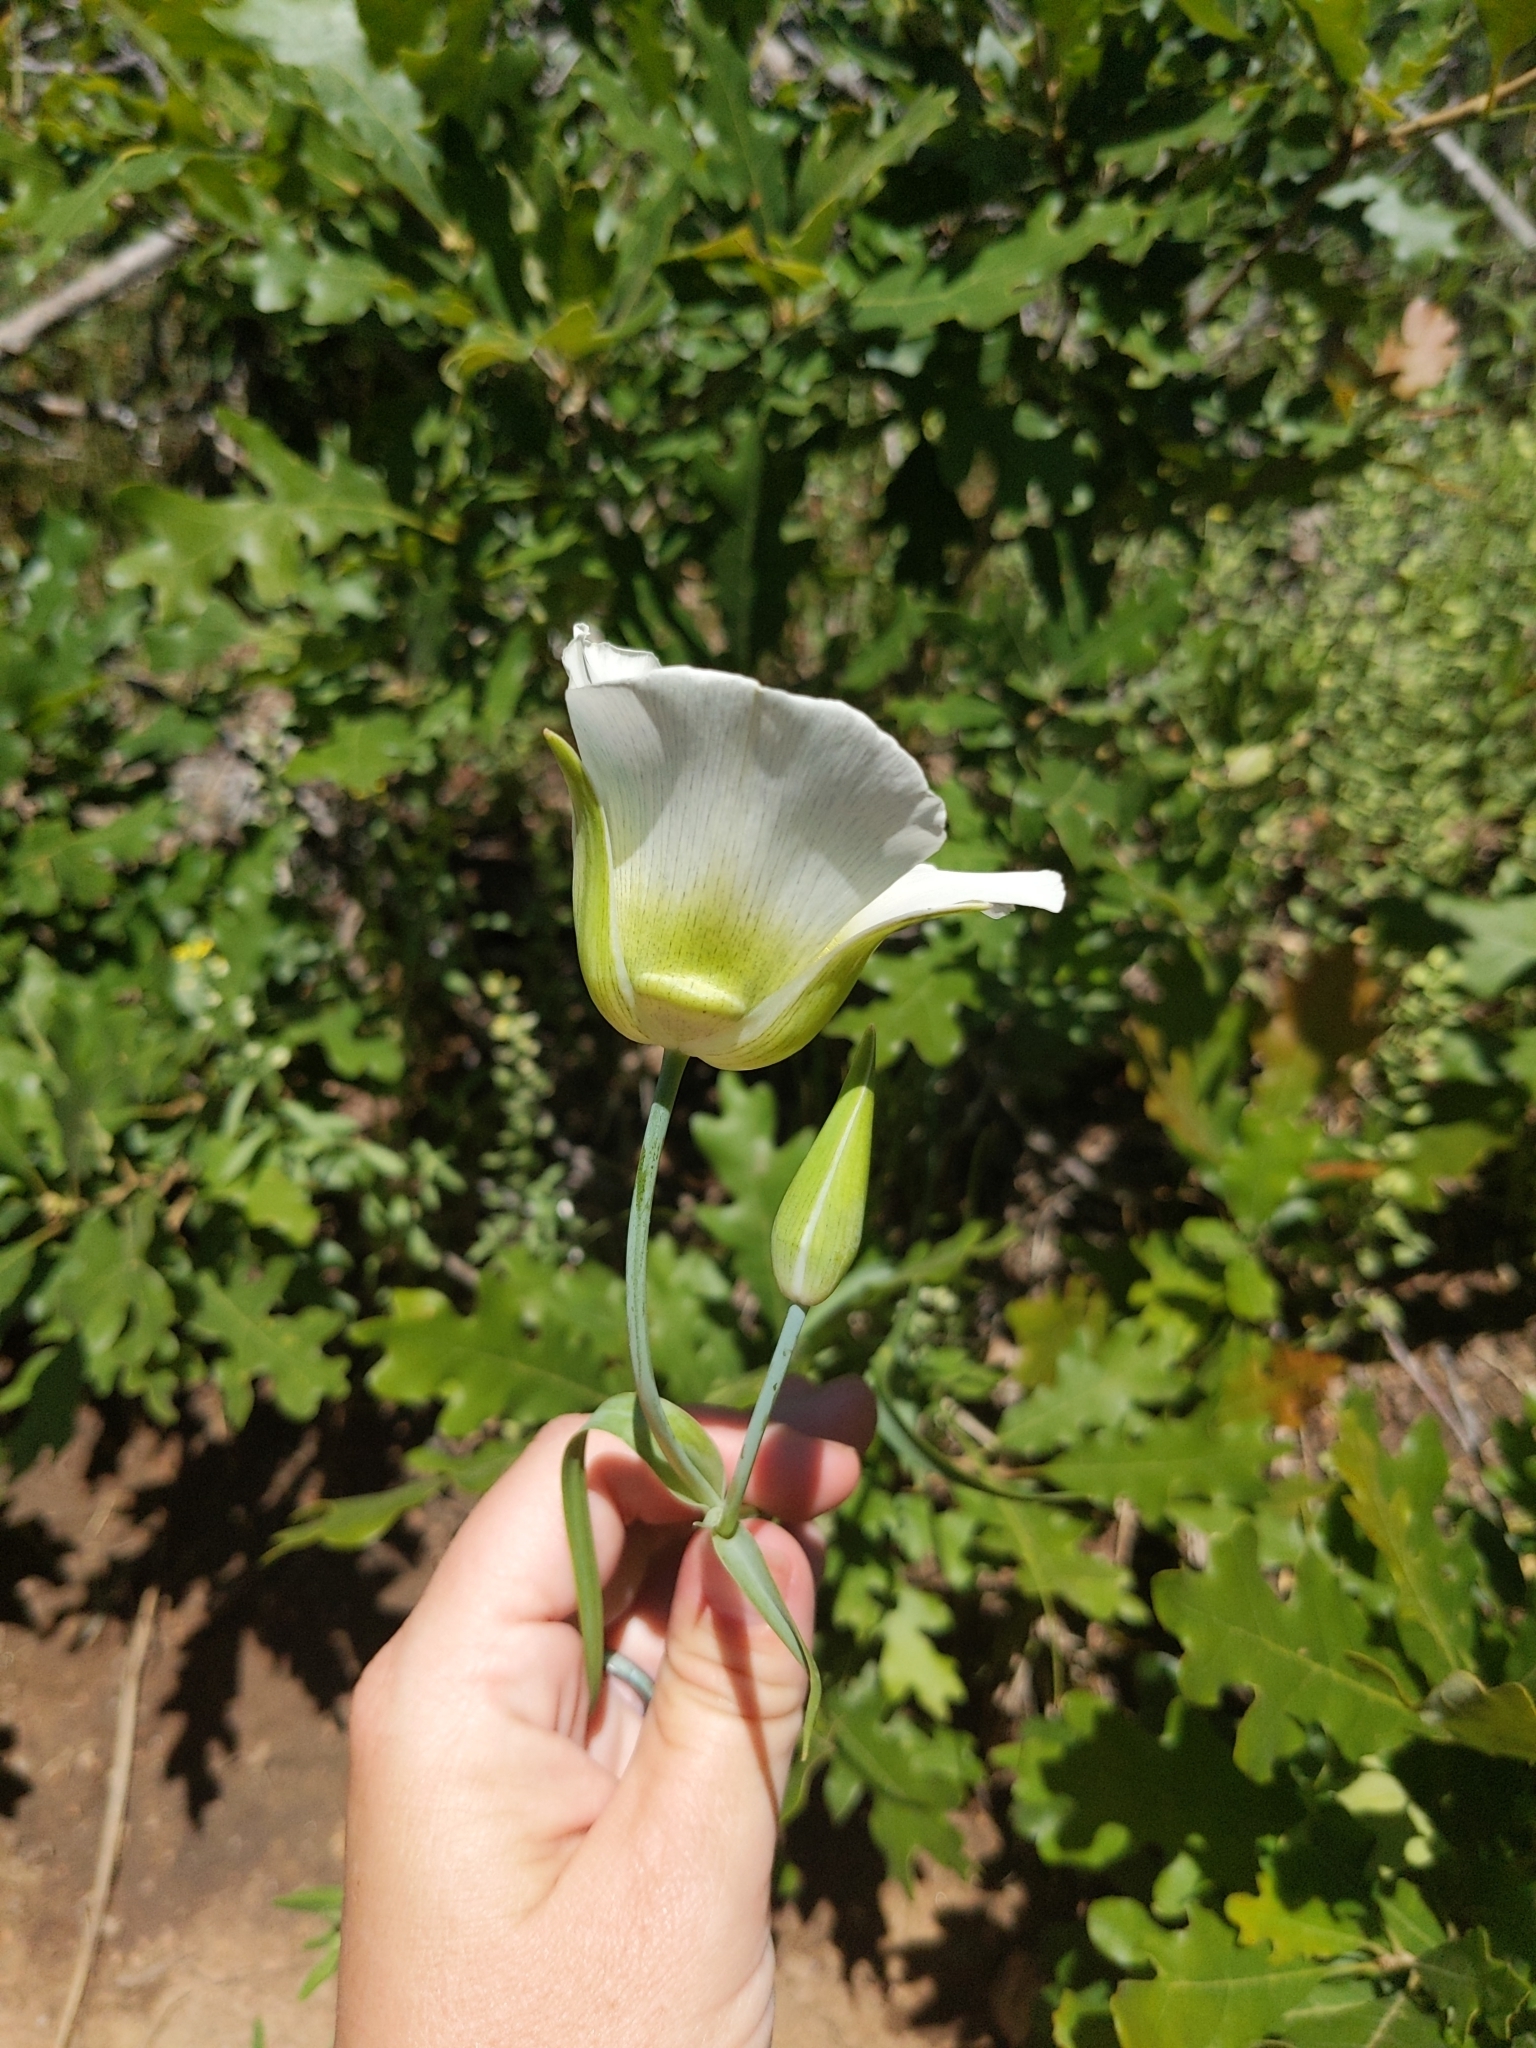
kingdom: Plantae
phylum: Tracheophyta
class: Liliopsida
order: Liliales
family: Liliaceae
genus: Calochortus
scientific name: Calochortus gunnisonii
